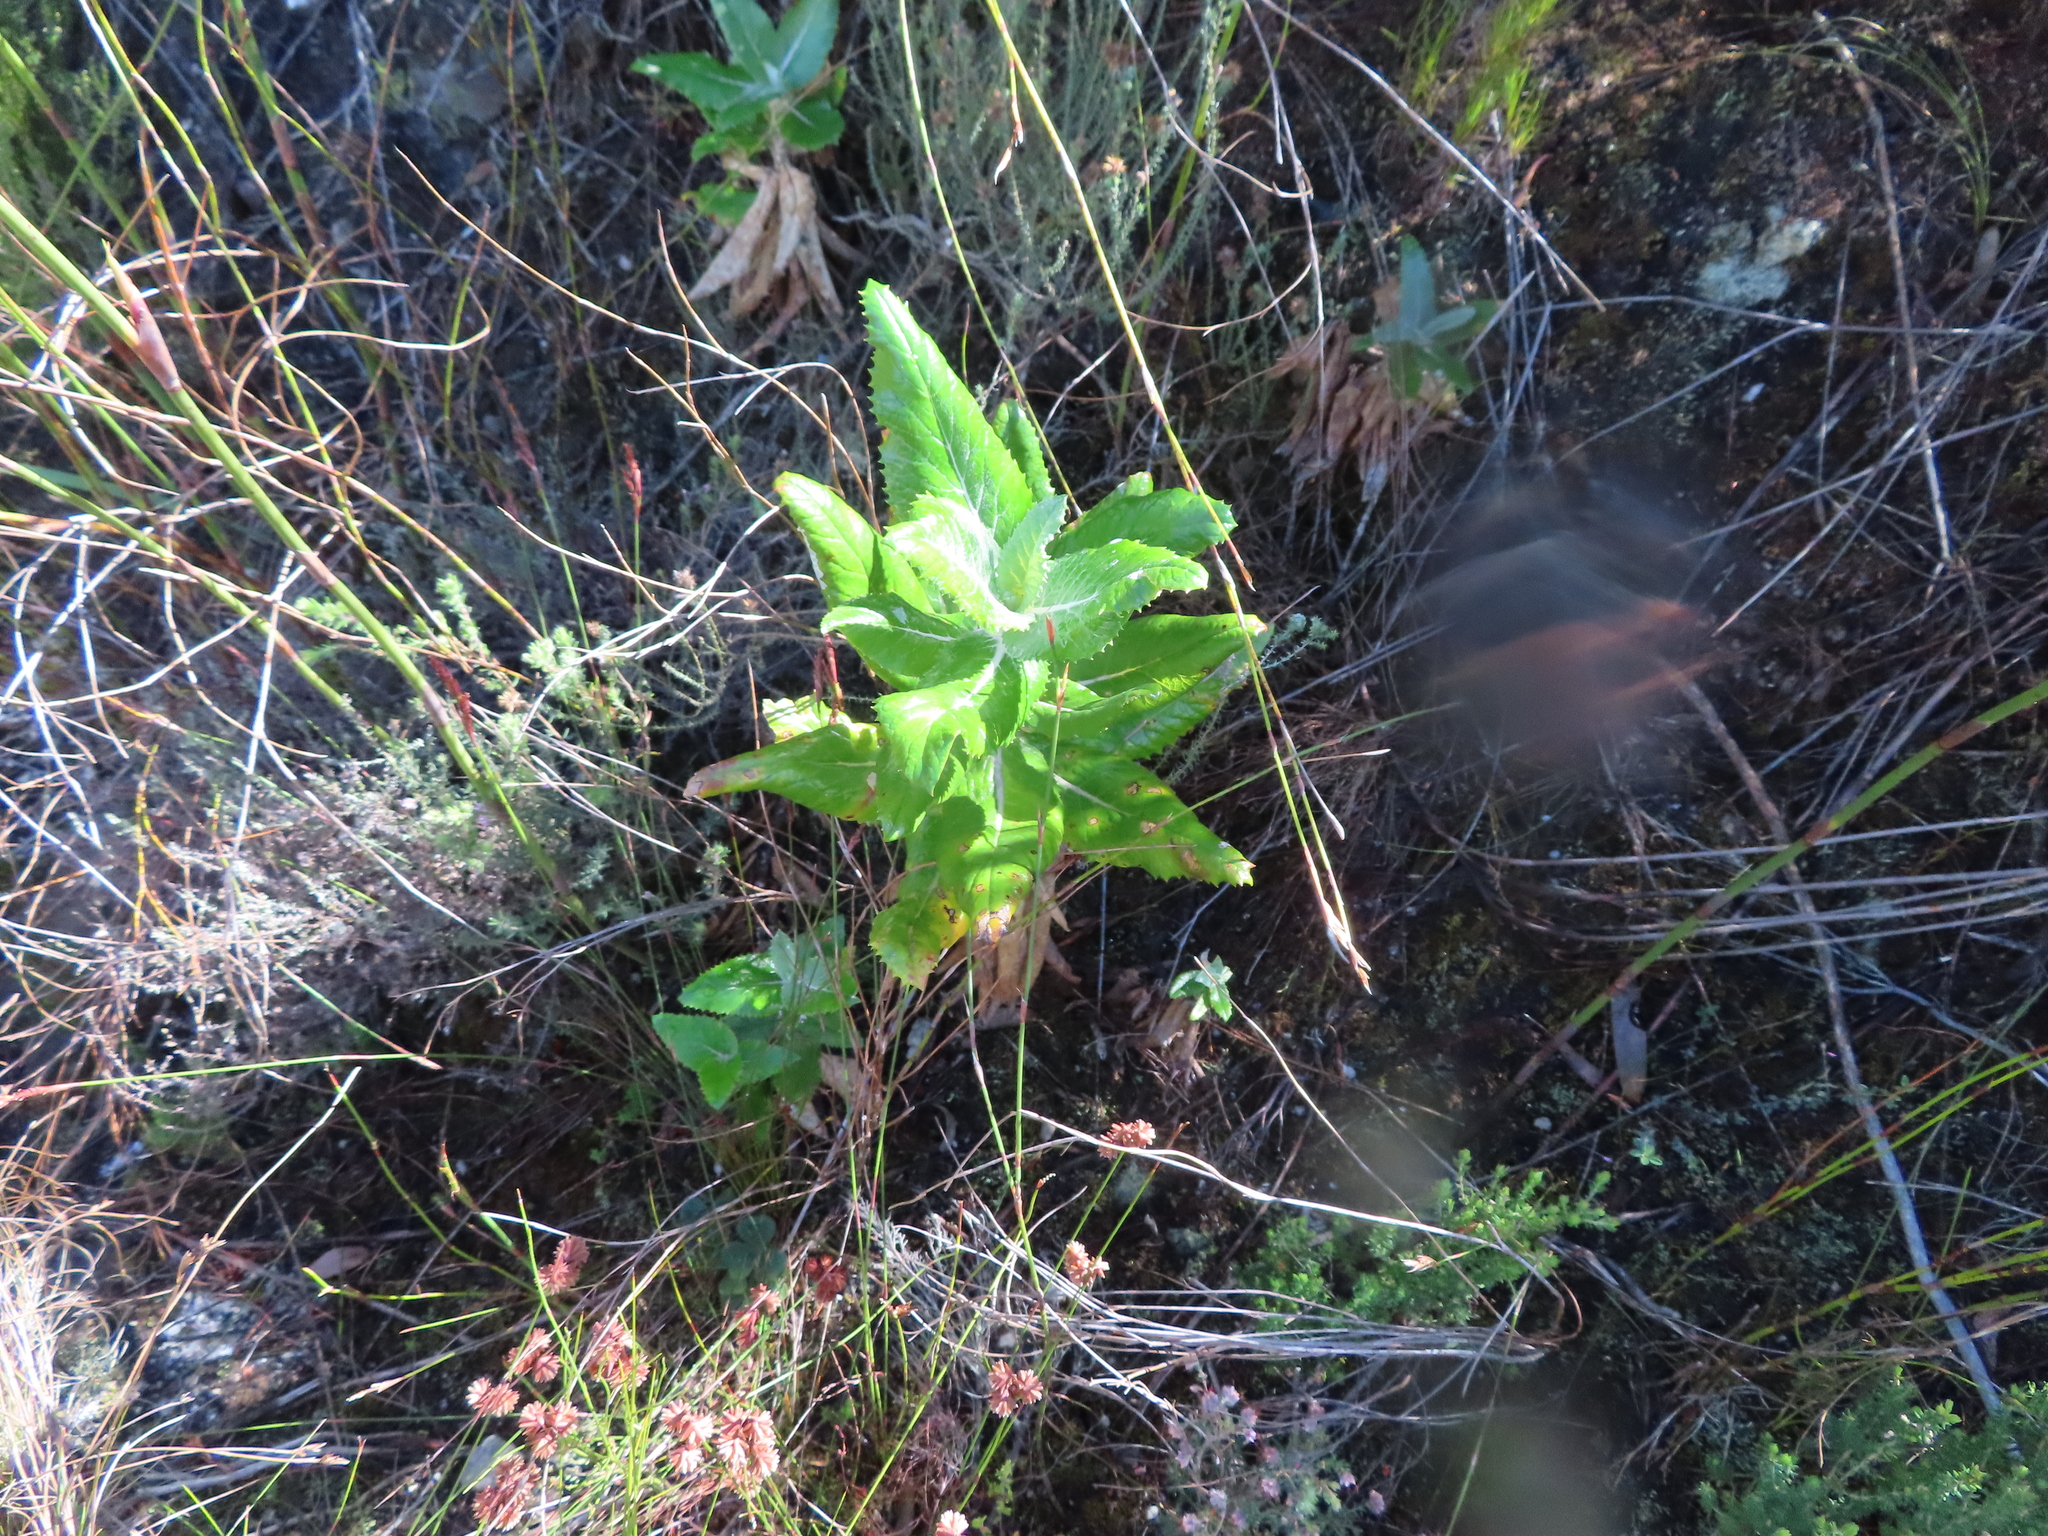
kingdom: Plantae
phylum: Tracheophyta
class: Magnoliopsida
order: Apiales
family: Apiaceae
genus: Hermas
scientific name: Hermas villosa
